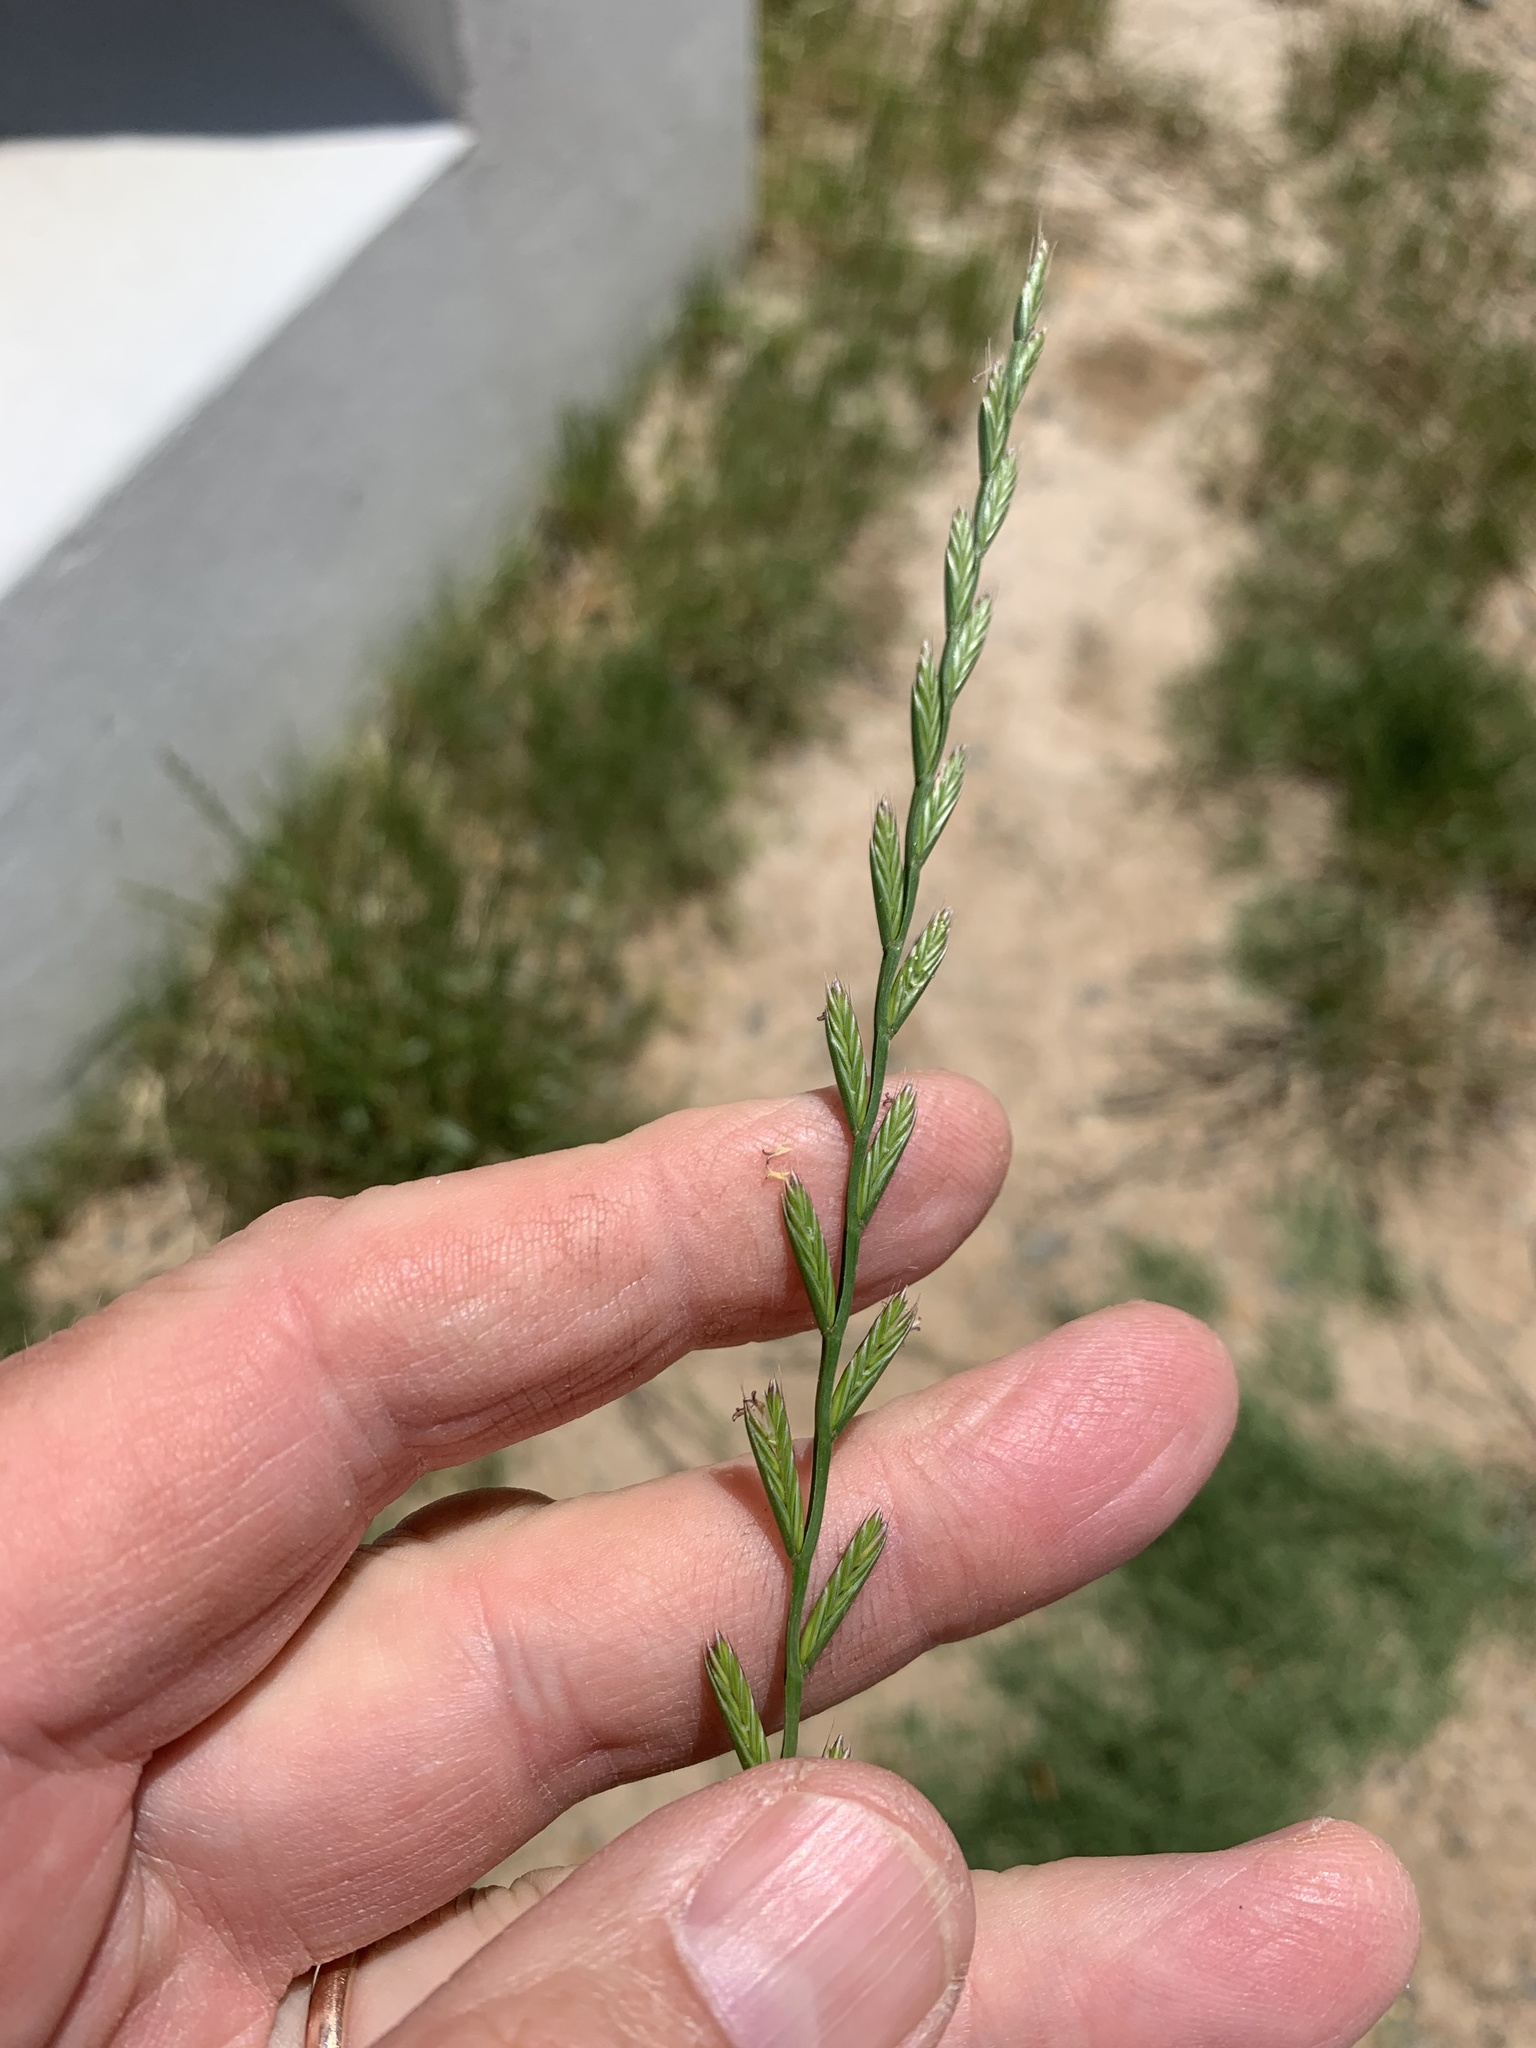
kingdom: Plantae
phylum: Tracheophyta
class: Liliopsida
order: Poales
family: Poaceae
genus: Lolium
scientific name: Lolium multiflorum
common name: Annual ryegrass
